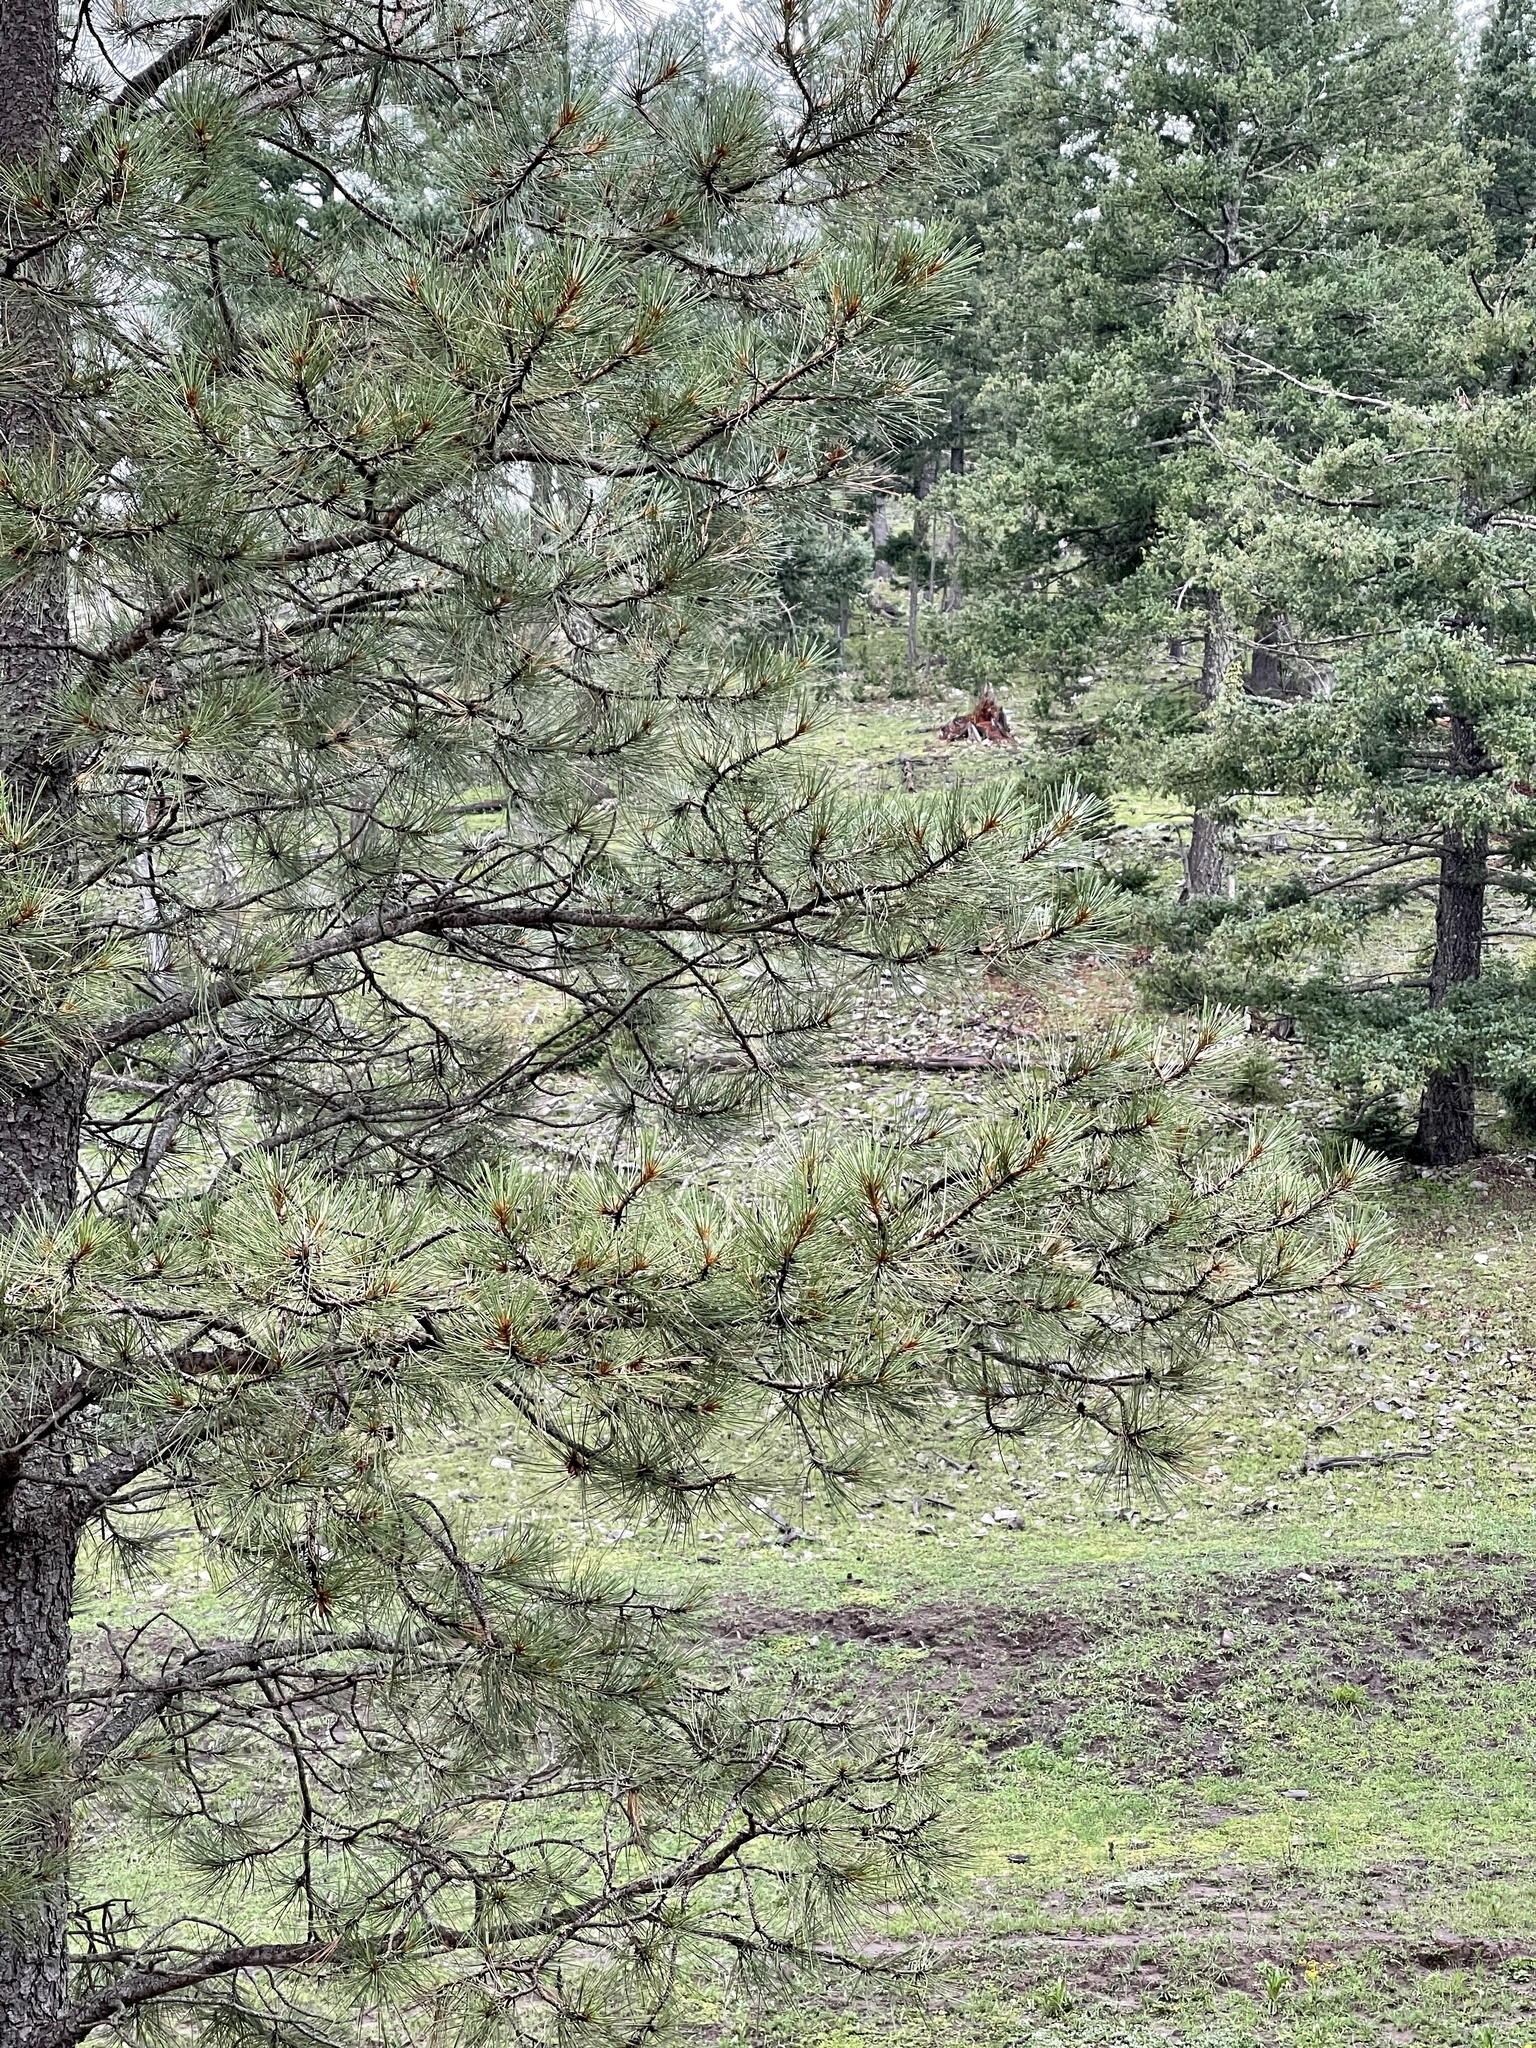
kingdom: Plantae
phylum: Tracheophyta
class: Pinopsida
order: Pinales
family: Pinaceae
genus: Pinus
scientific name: Pinus ponderosa
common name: Western yellow-pine
